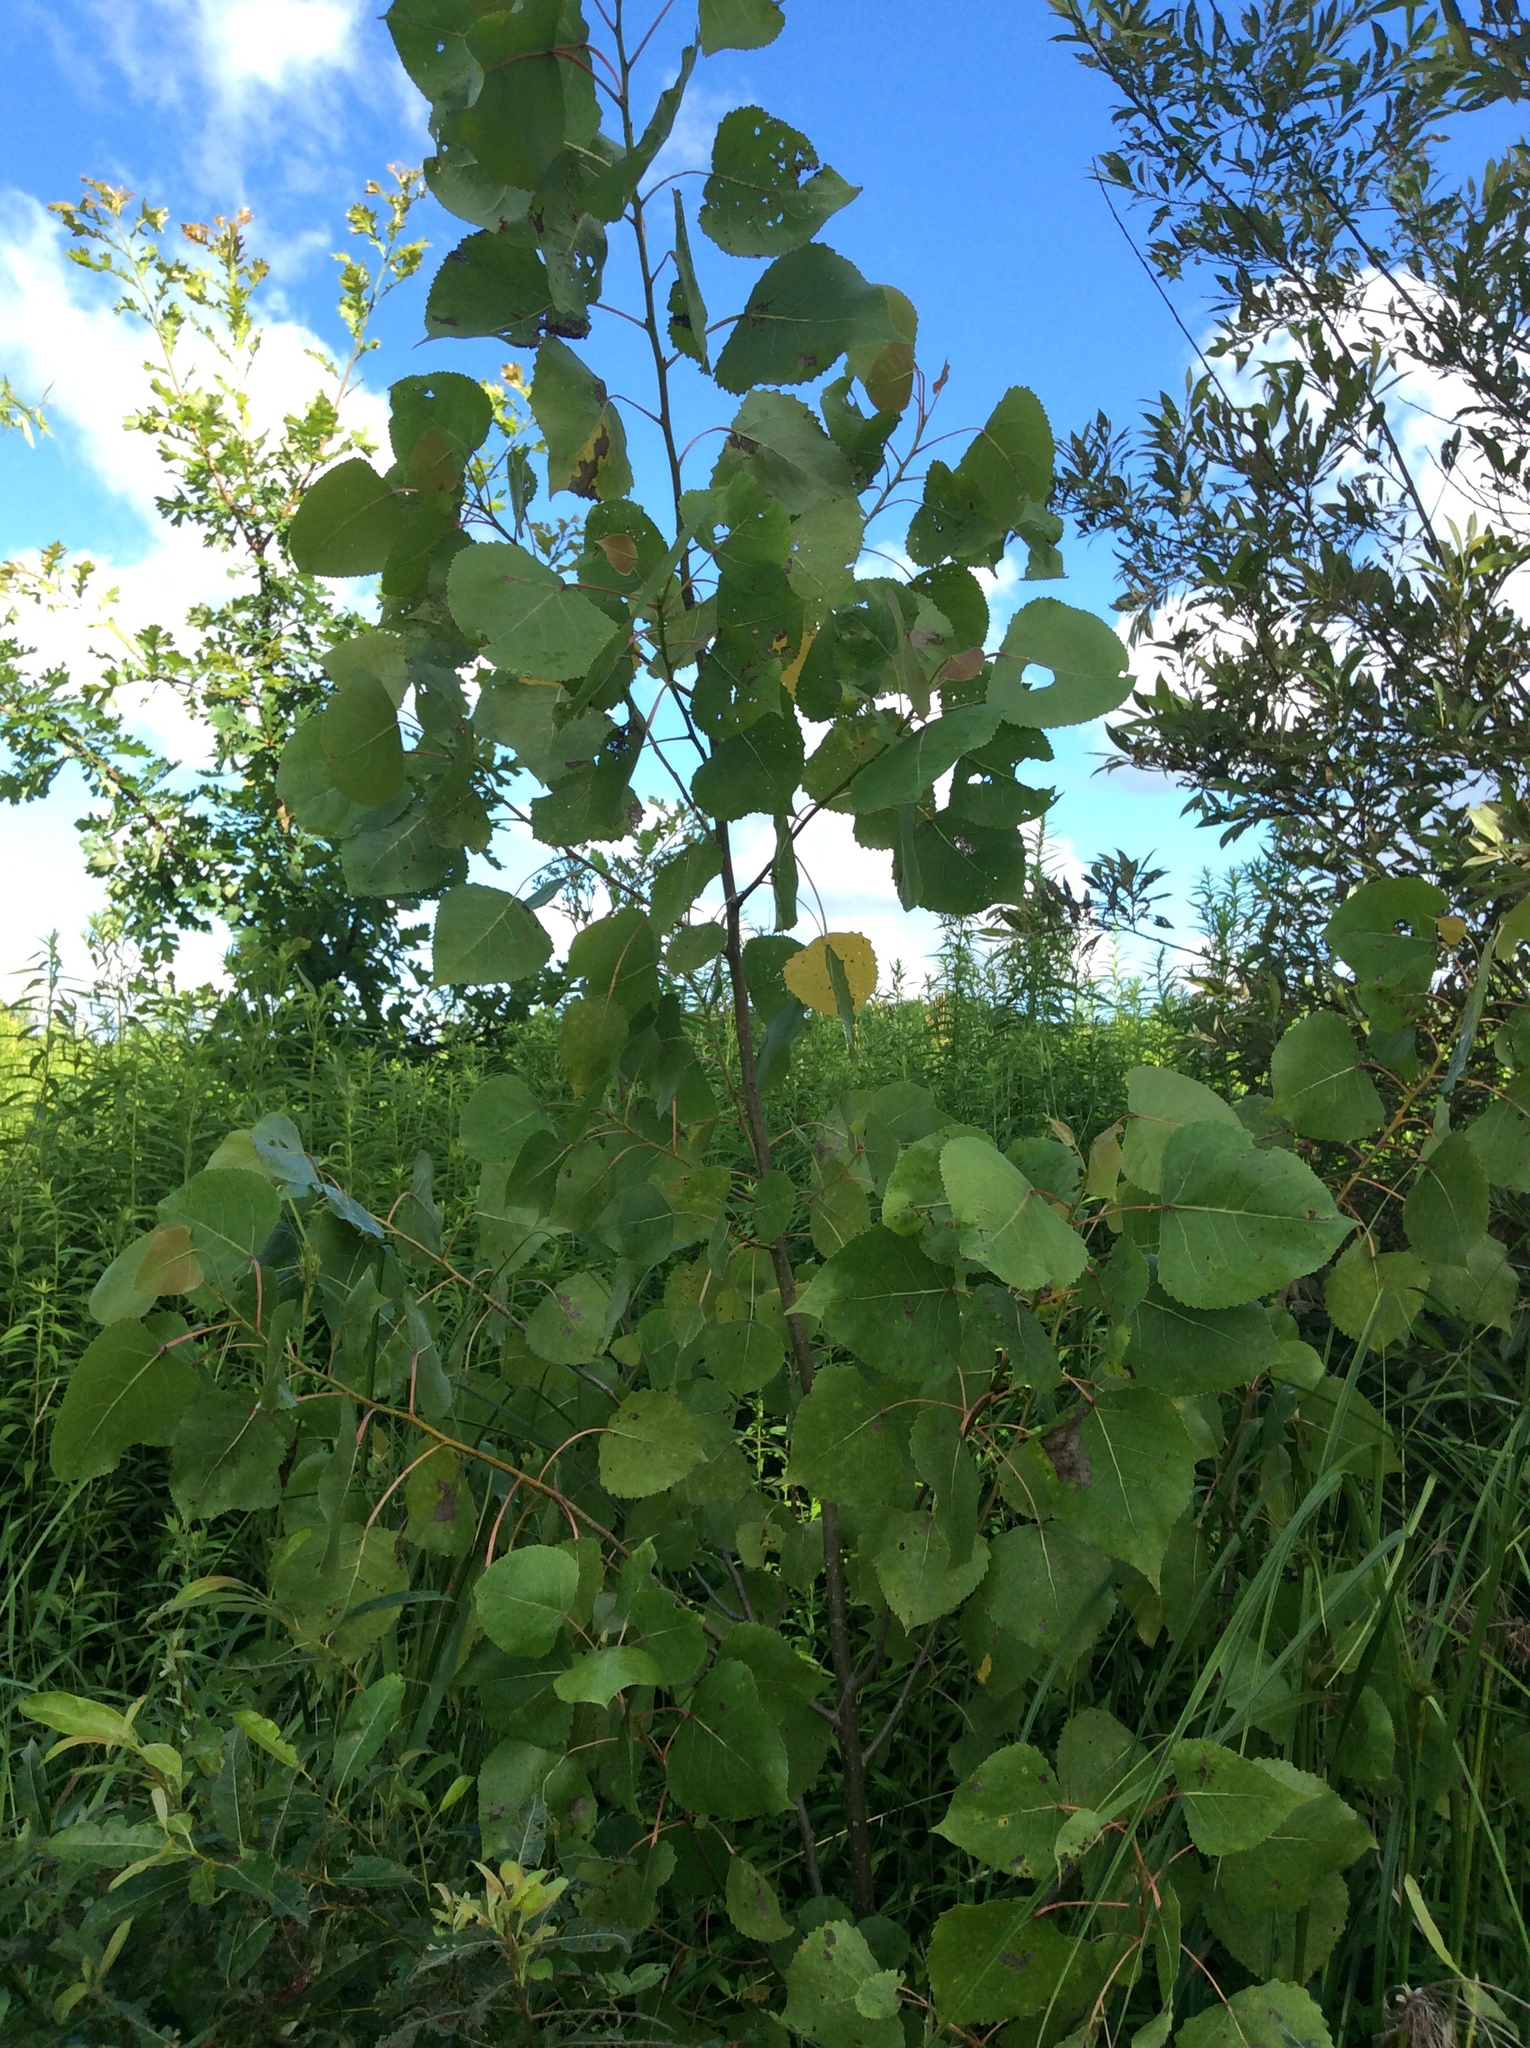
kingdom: Plantae
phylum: Tracheophyta
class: Magnoliopsida
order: Malpighiales
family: Salicaceae
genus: Populus
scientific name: Populus deltoides
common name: Eastern cottonwood
